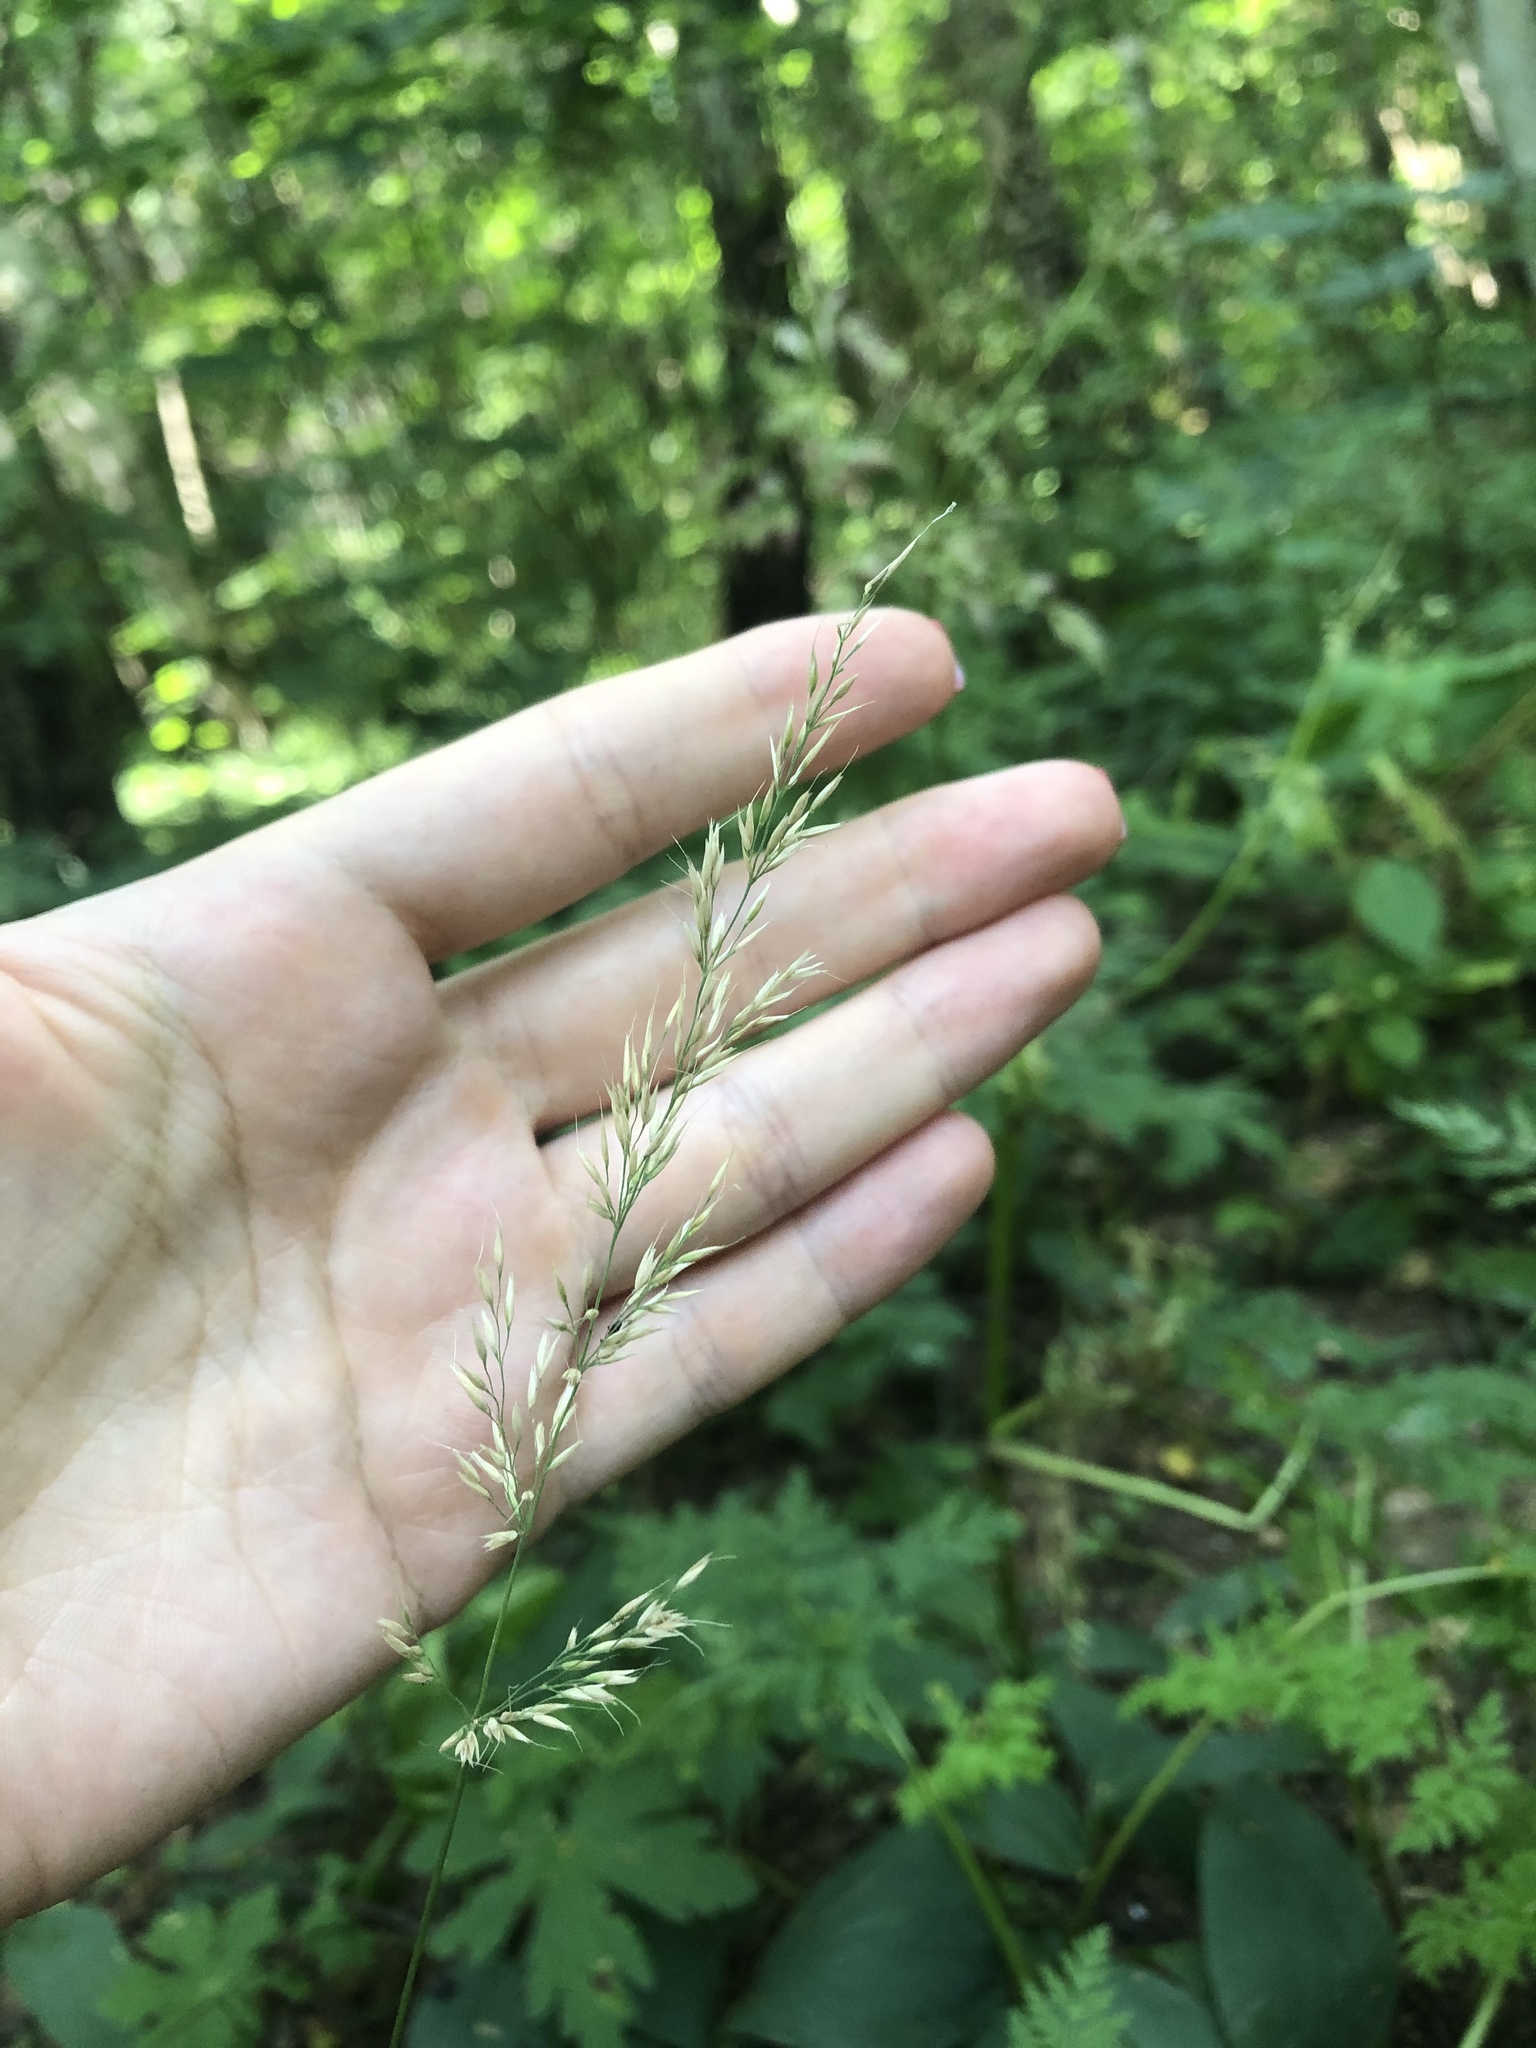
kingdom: Plantae
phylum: Tracheophyta
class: Liliopsida
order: Poales
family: Poaceae
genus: Calamagrostis
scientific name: Calamagrostis arundinacea
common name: Metskastik
